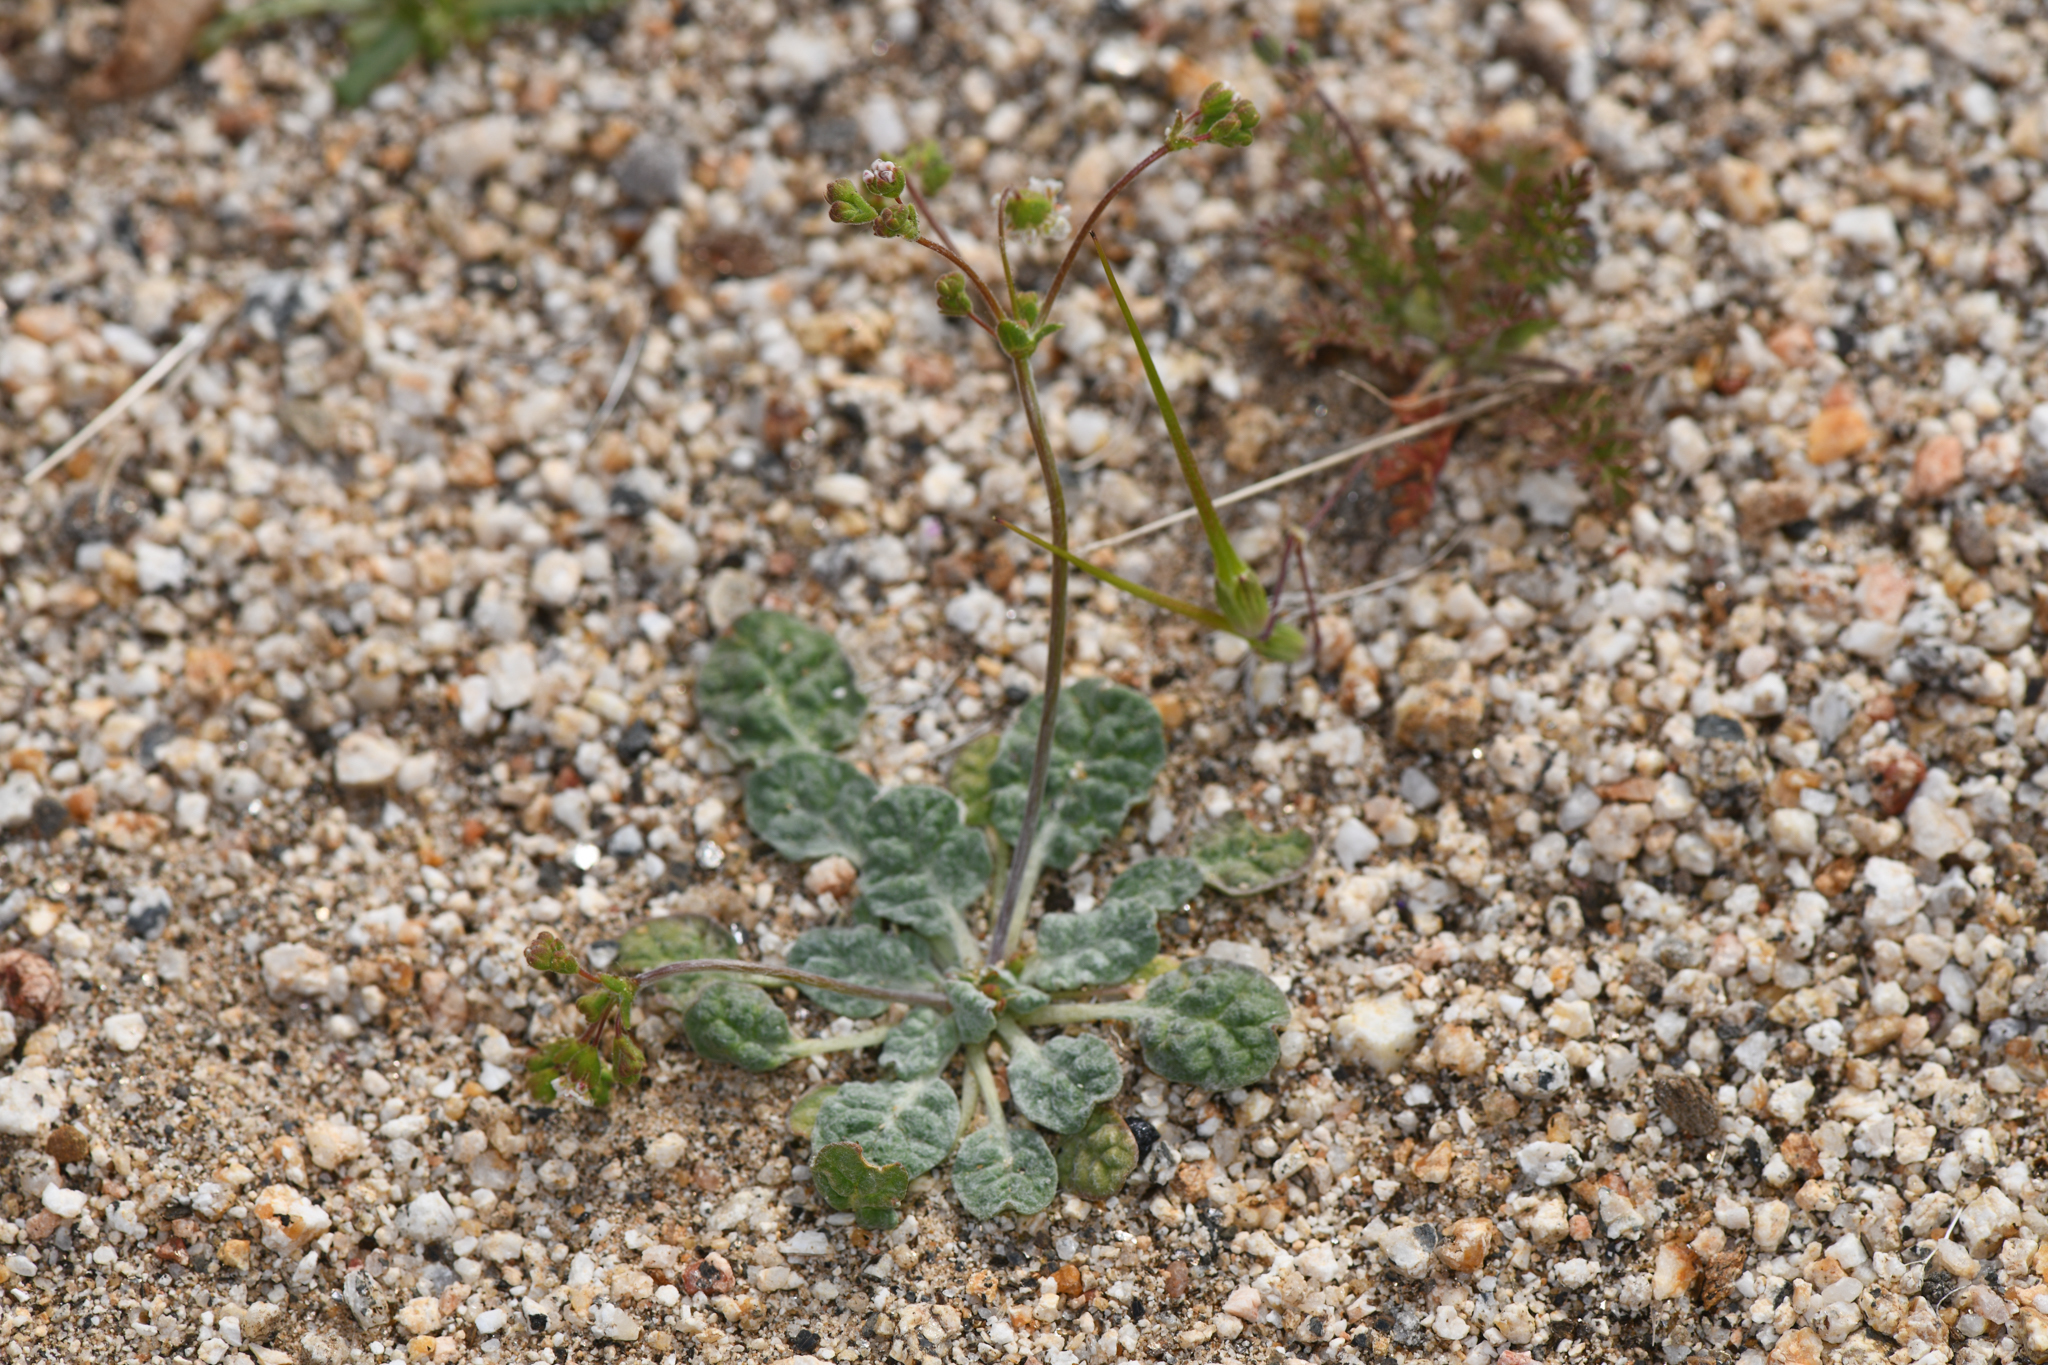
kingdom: Plantae
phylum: Tracheophyta
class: Magnoliopsida
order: Caryophyllales
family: Polygonaceae
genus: Eriogonum
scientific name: Eriogonum thurberi
